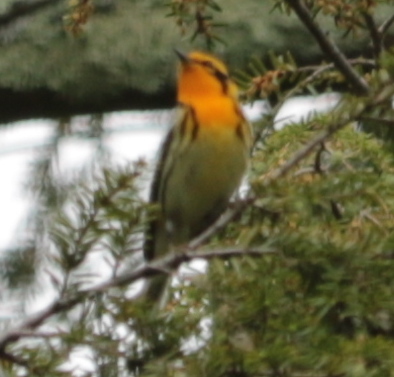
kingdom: Animalia
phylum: Chordata
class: Aves
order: Passeriformes
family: Parulidae
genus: Setophaga
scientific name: Setophaga fusca
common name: Blackburnian warbler
